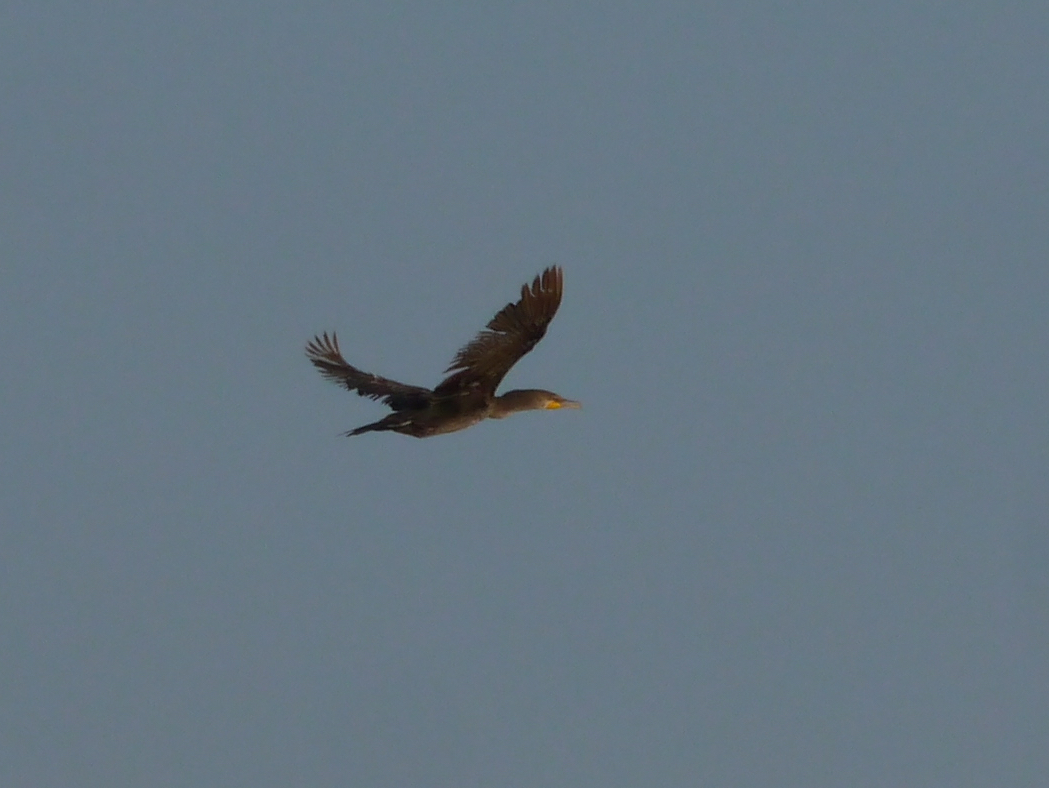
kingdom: Animalia
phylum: Chordata
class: Aves
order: Suliformes
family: Phalacrocoracidae
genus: Phalacrocorax
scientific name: Phalacrocorax auritus
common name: Double-crested cormorant
